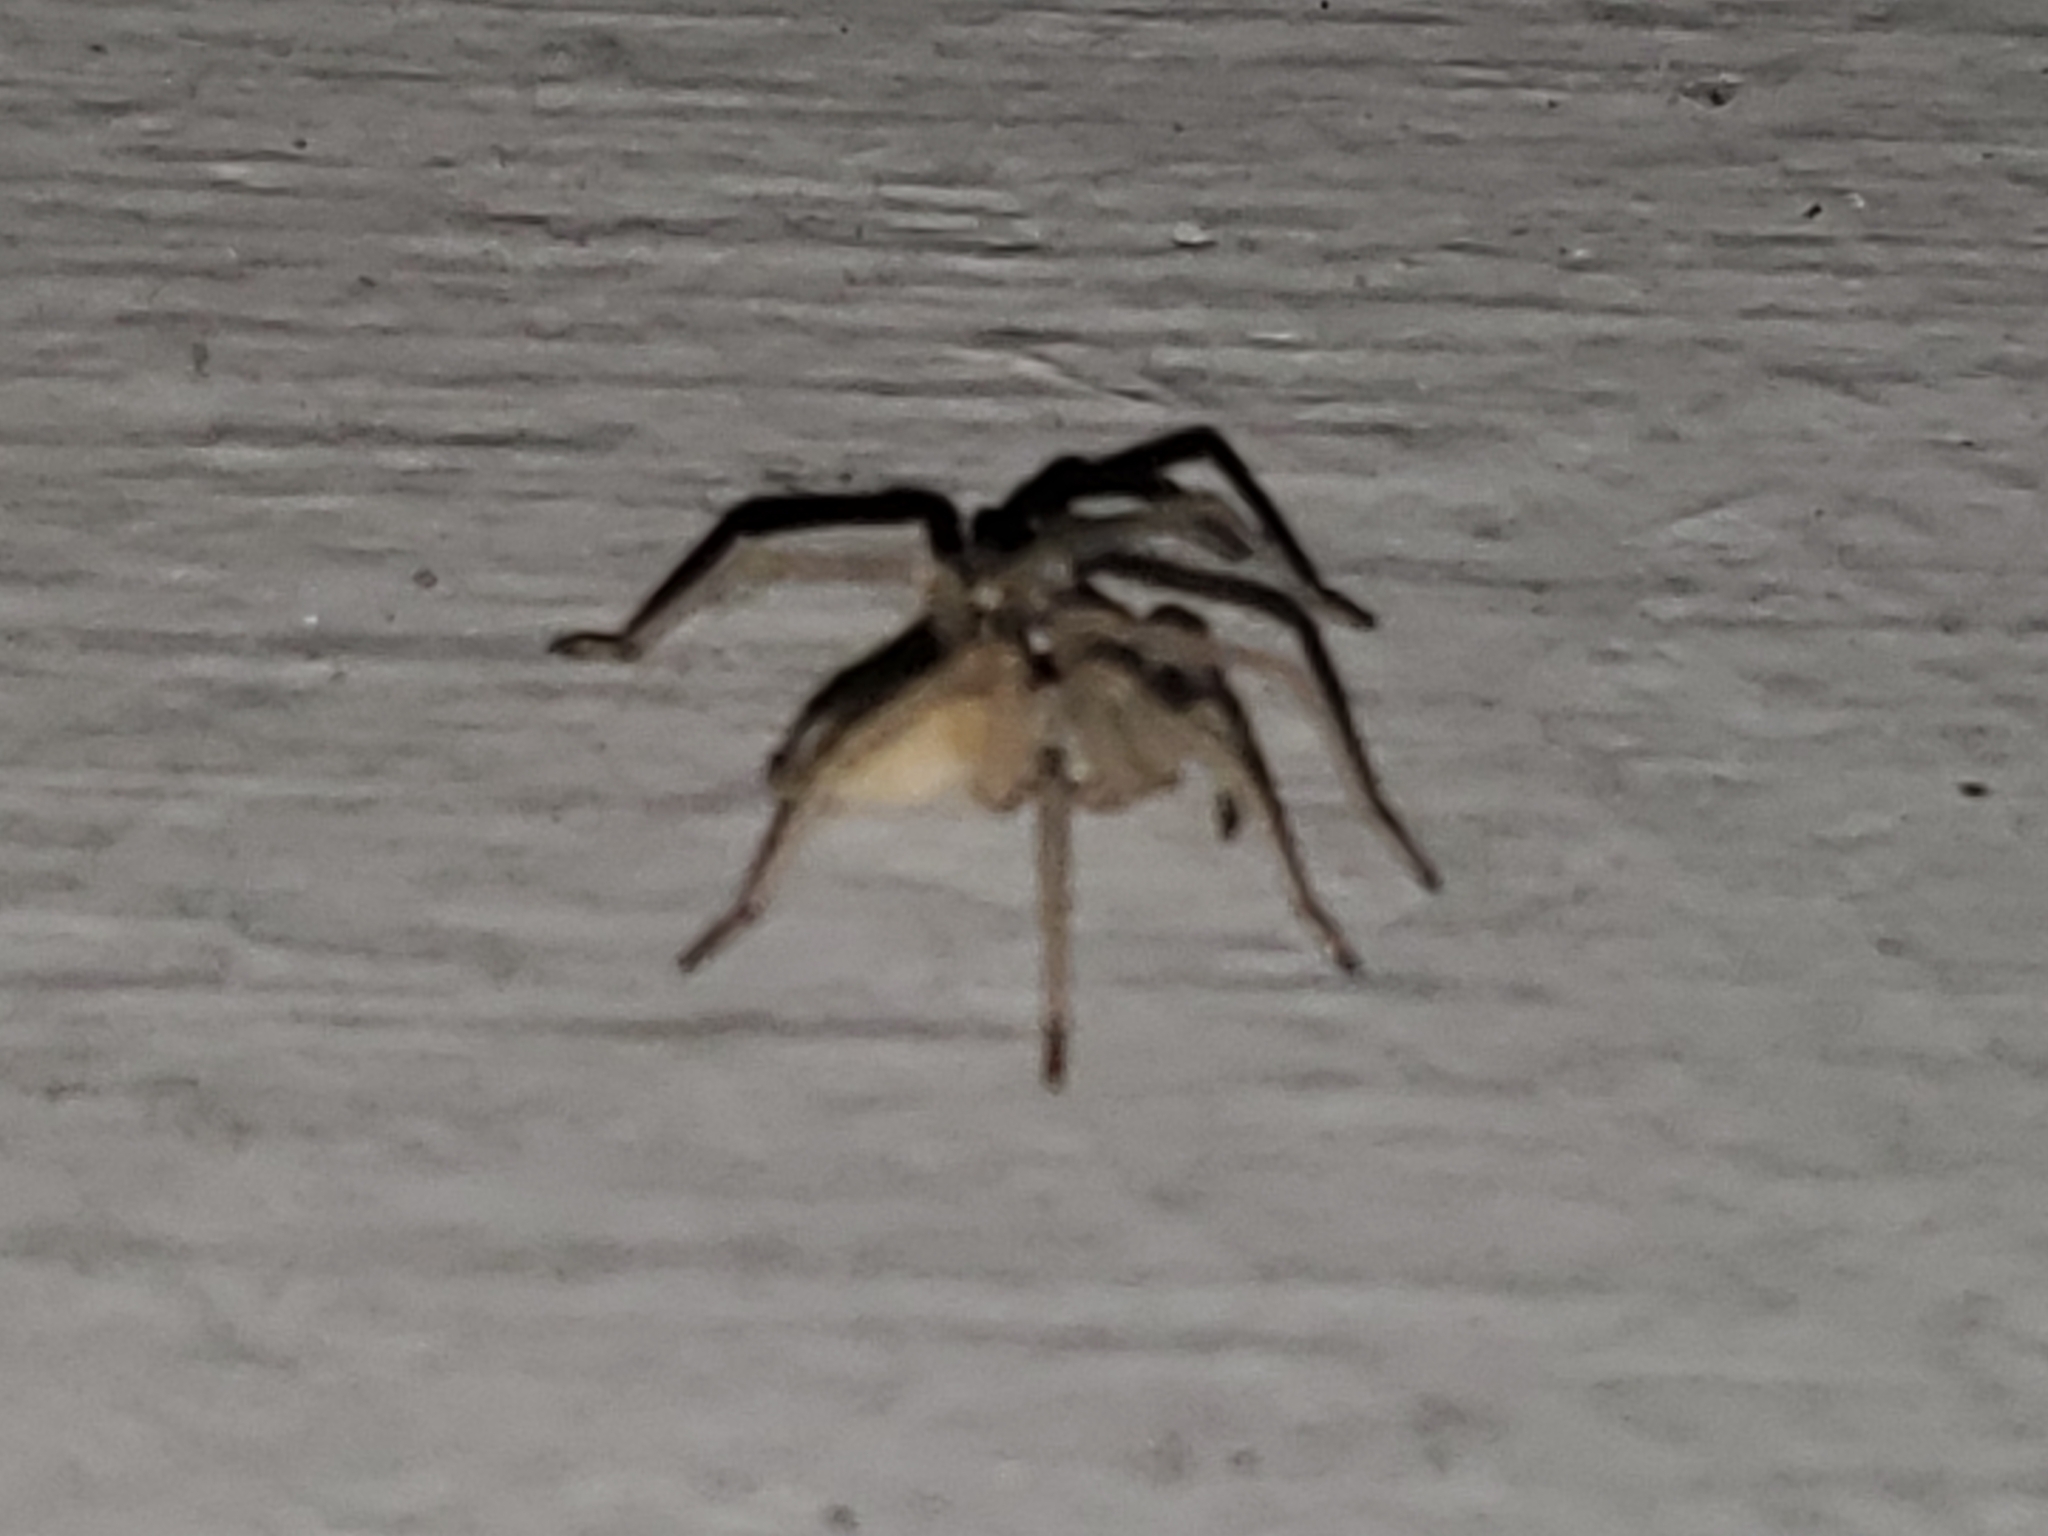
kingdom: Animalia
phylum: Arthropoda
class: Arachnida
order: Araneae
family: Cheiracanthiidae
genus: Cheiracanthium
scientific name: Cheiracanthium mildei
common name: Northern yellow sac spider
